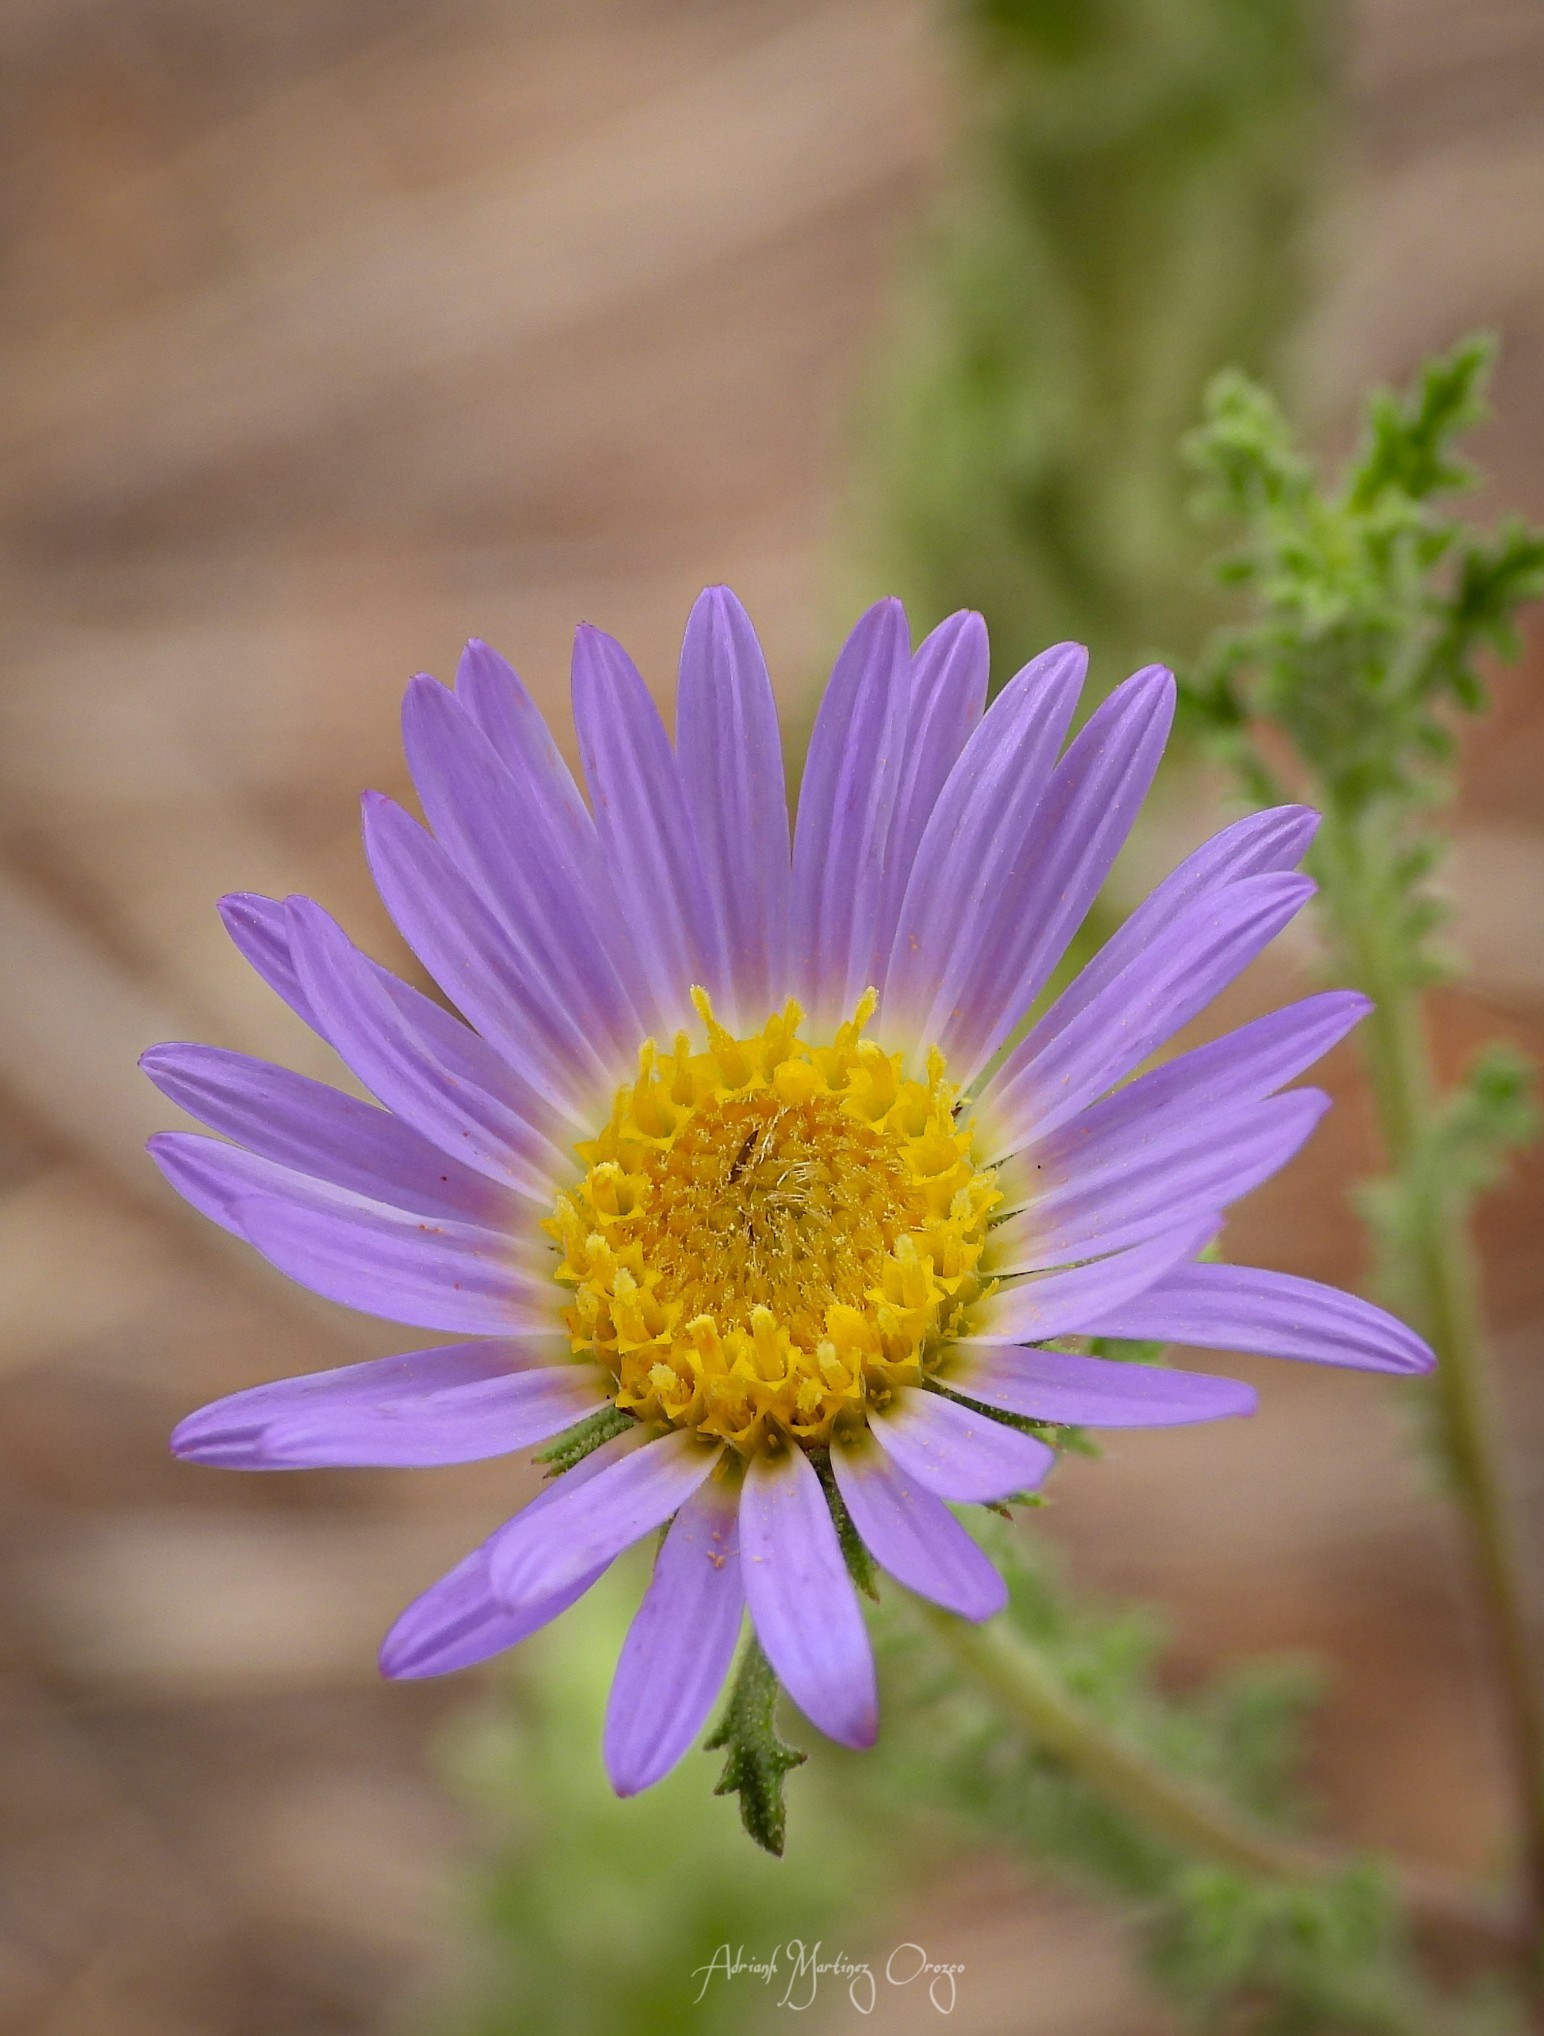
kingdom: Plantae
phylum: Tracheophyta
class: Magnoliopsida
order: Asterales
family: Asteraceae
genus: Machaeranthera
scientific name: Machaeranthera tanacetifolia
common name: Tansy-aster
